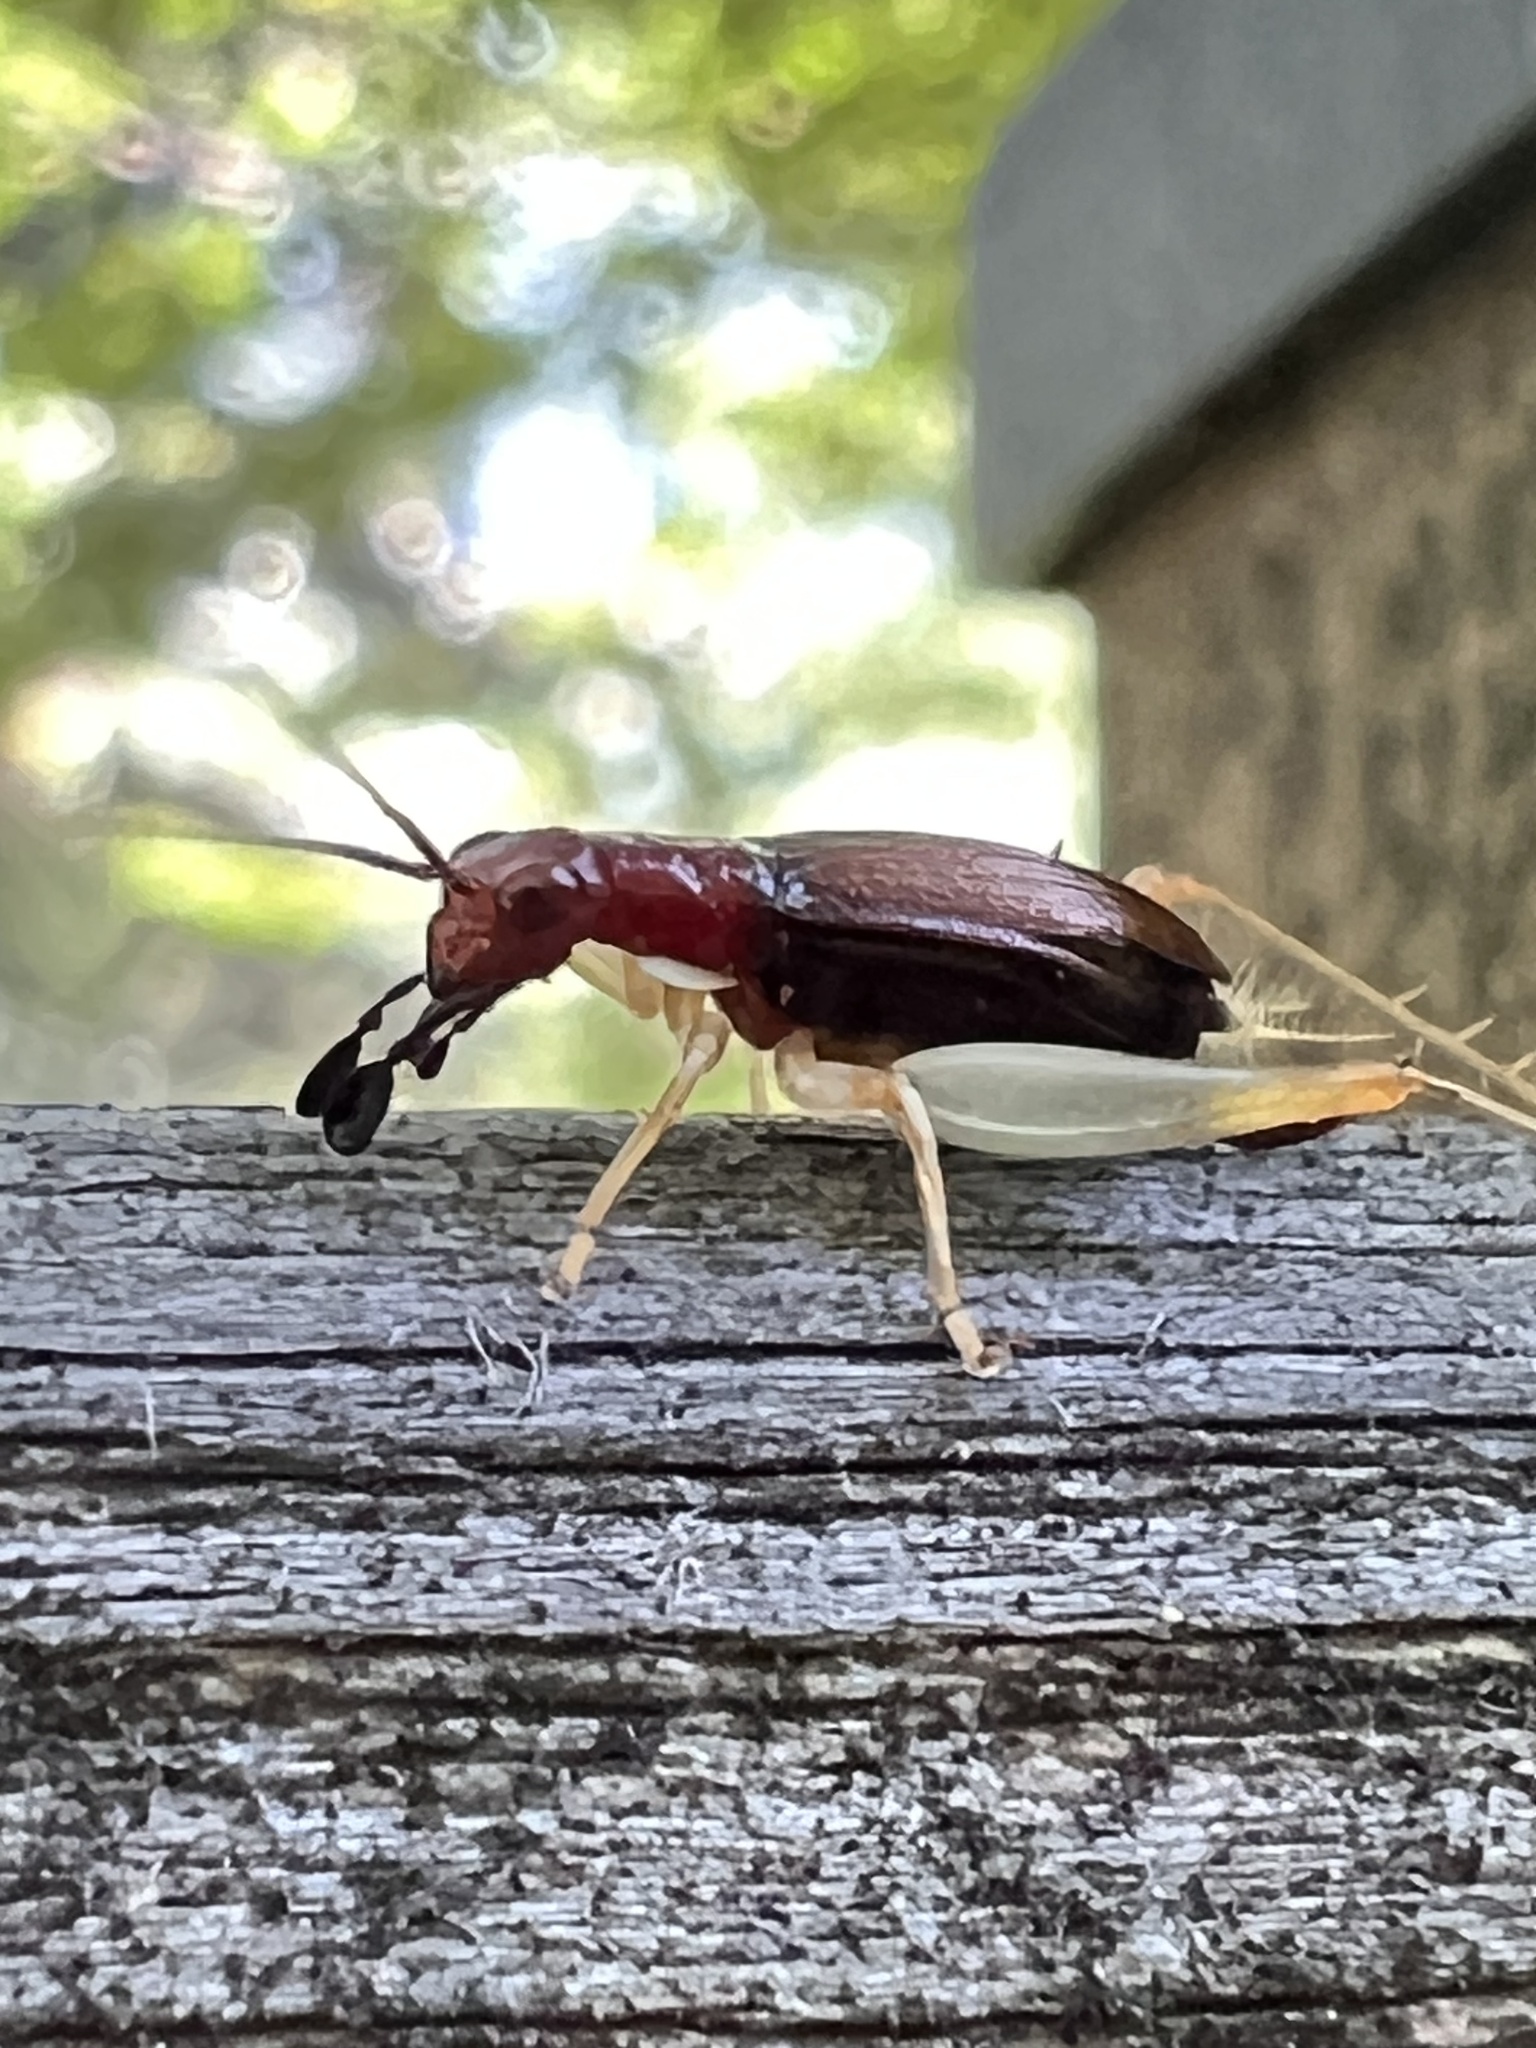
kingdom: Animalia
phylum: Arthropoda
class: Insecta
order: Orthoptera
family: Trigonidiidae
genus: Phyllopalpus
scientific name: Phyllopalpus pulchellus
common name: Handsome trig
